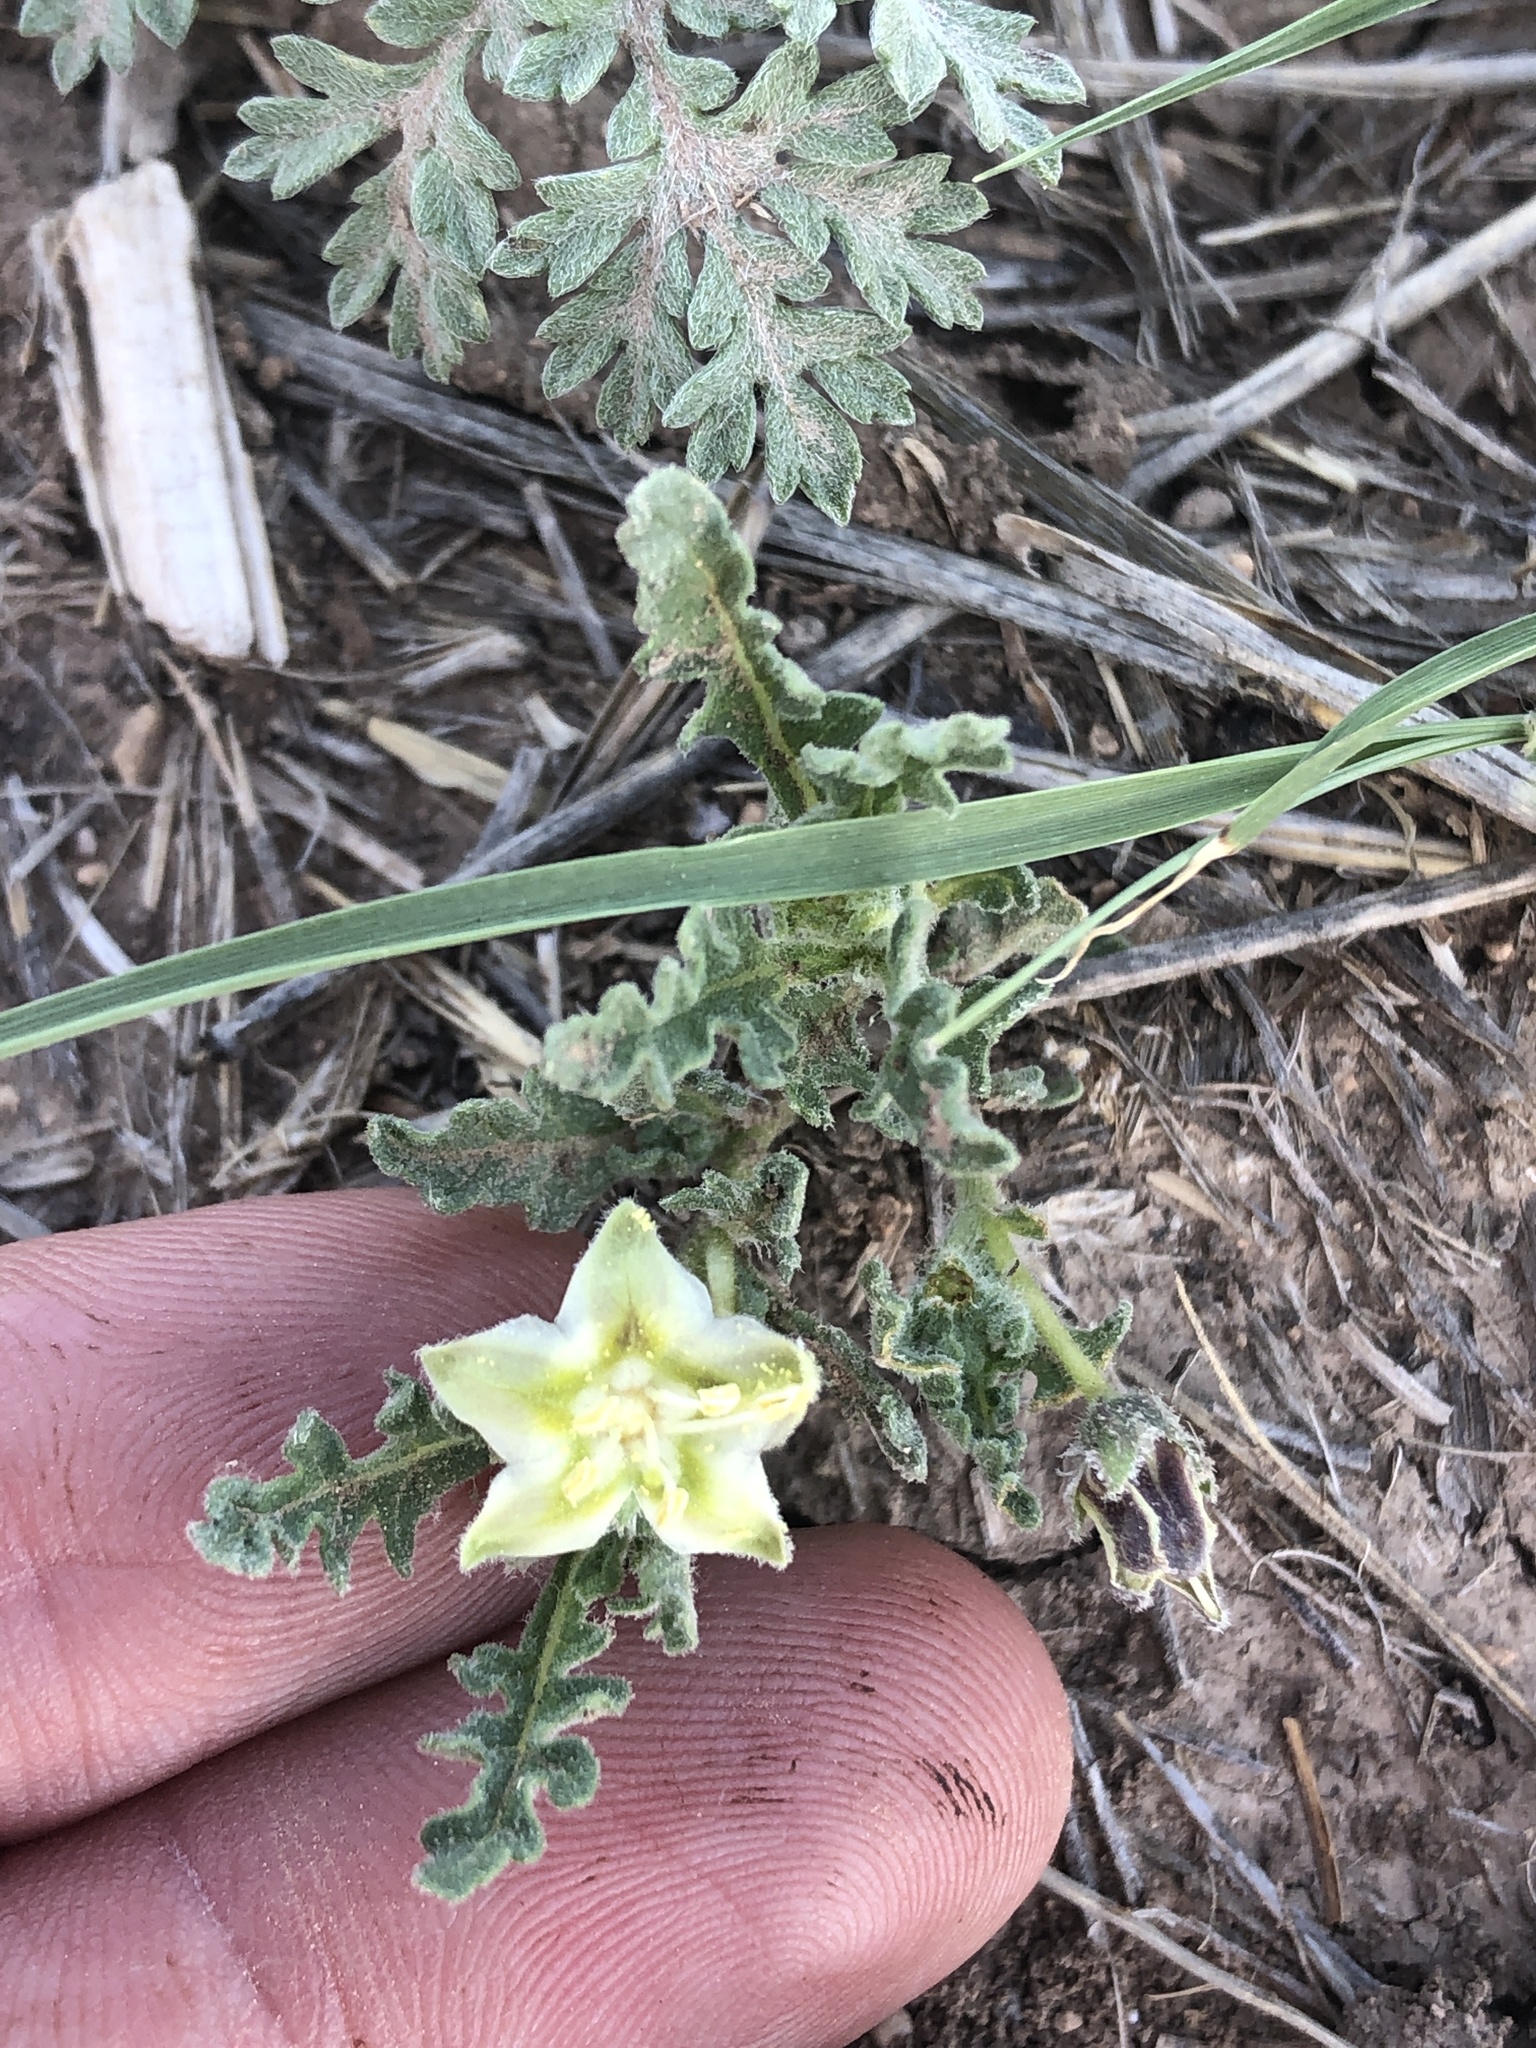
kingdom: Plantae
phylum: Tracheophyta
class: Magnoliopsida
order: Solanales
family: Solanaceae
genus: Chamaesaracha
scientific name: Chamaesaracha coniodes
